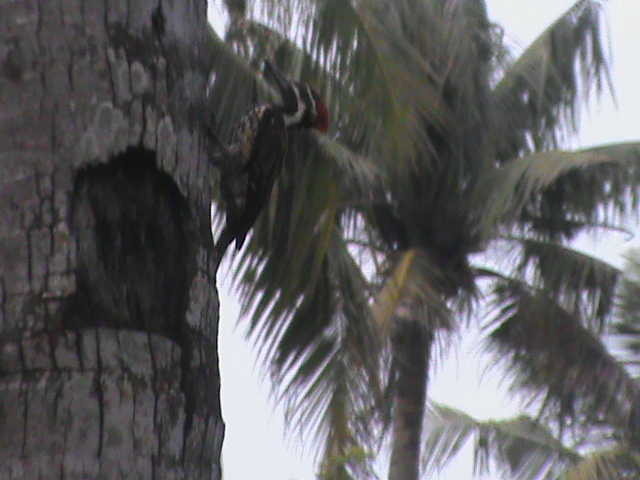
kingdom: Animalia
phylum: Chordata
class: Aves
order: Piciformes
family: Picidae
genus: Dinopium
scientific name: Dinopium benghalense
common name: Black-rumped flameback
